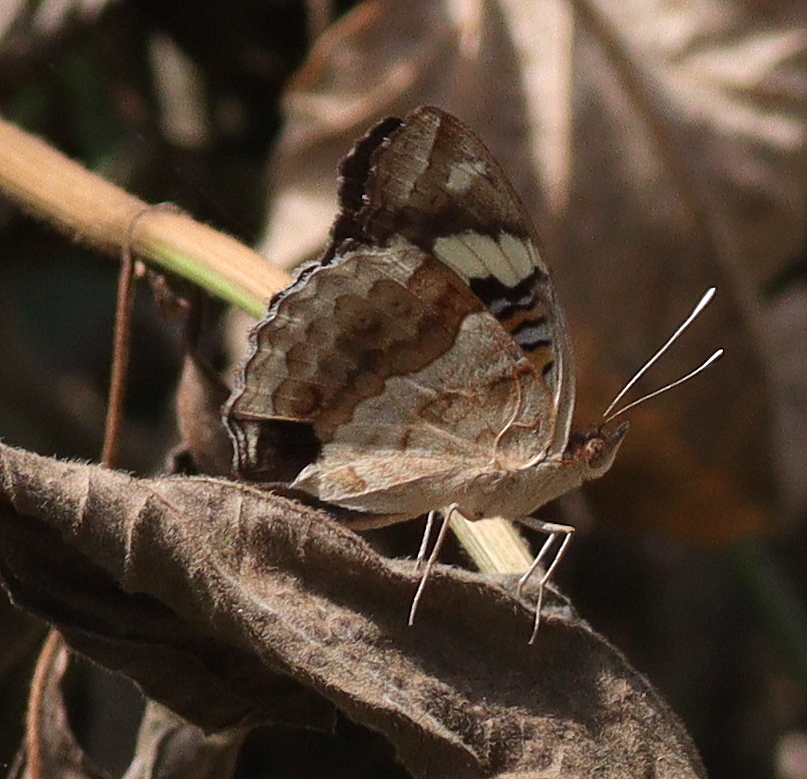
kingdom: Animalia
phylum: Arthropoda
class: Insecta
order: Lepidoptera
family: Nymphalidae
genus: Junonia
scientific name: Junonia oenone
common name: Dark blue pansy
